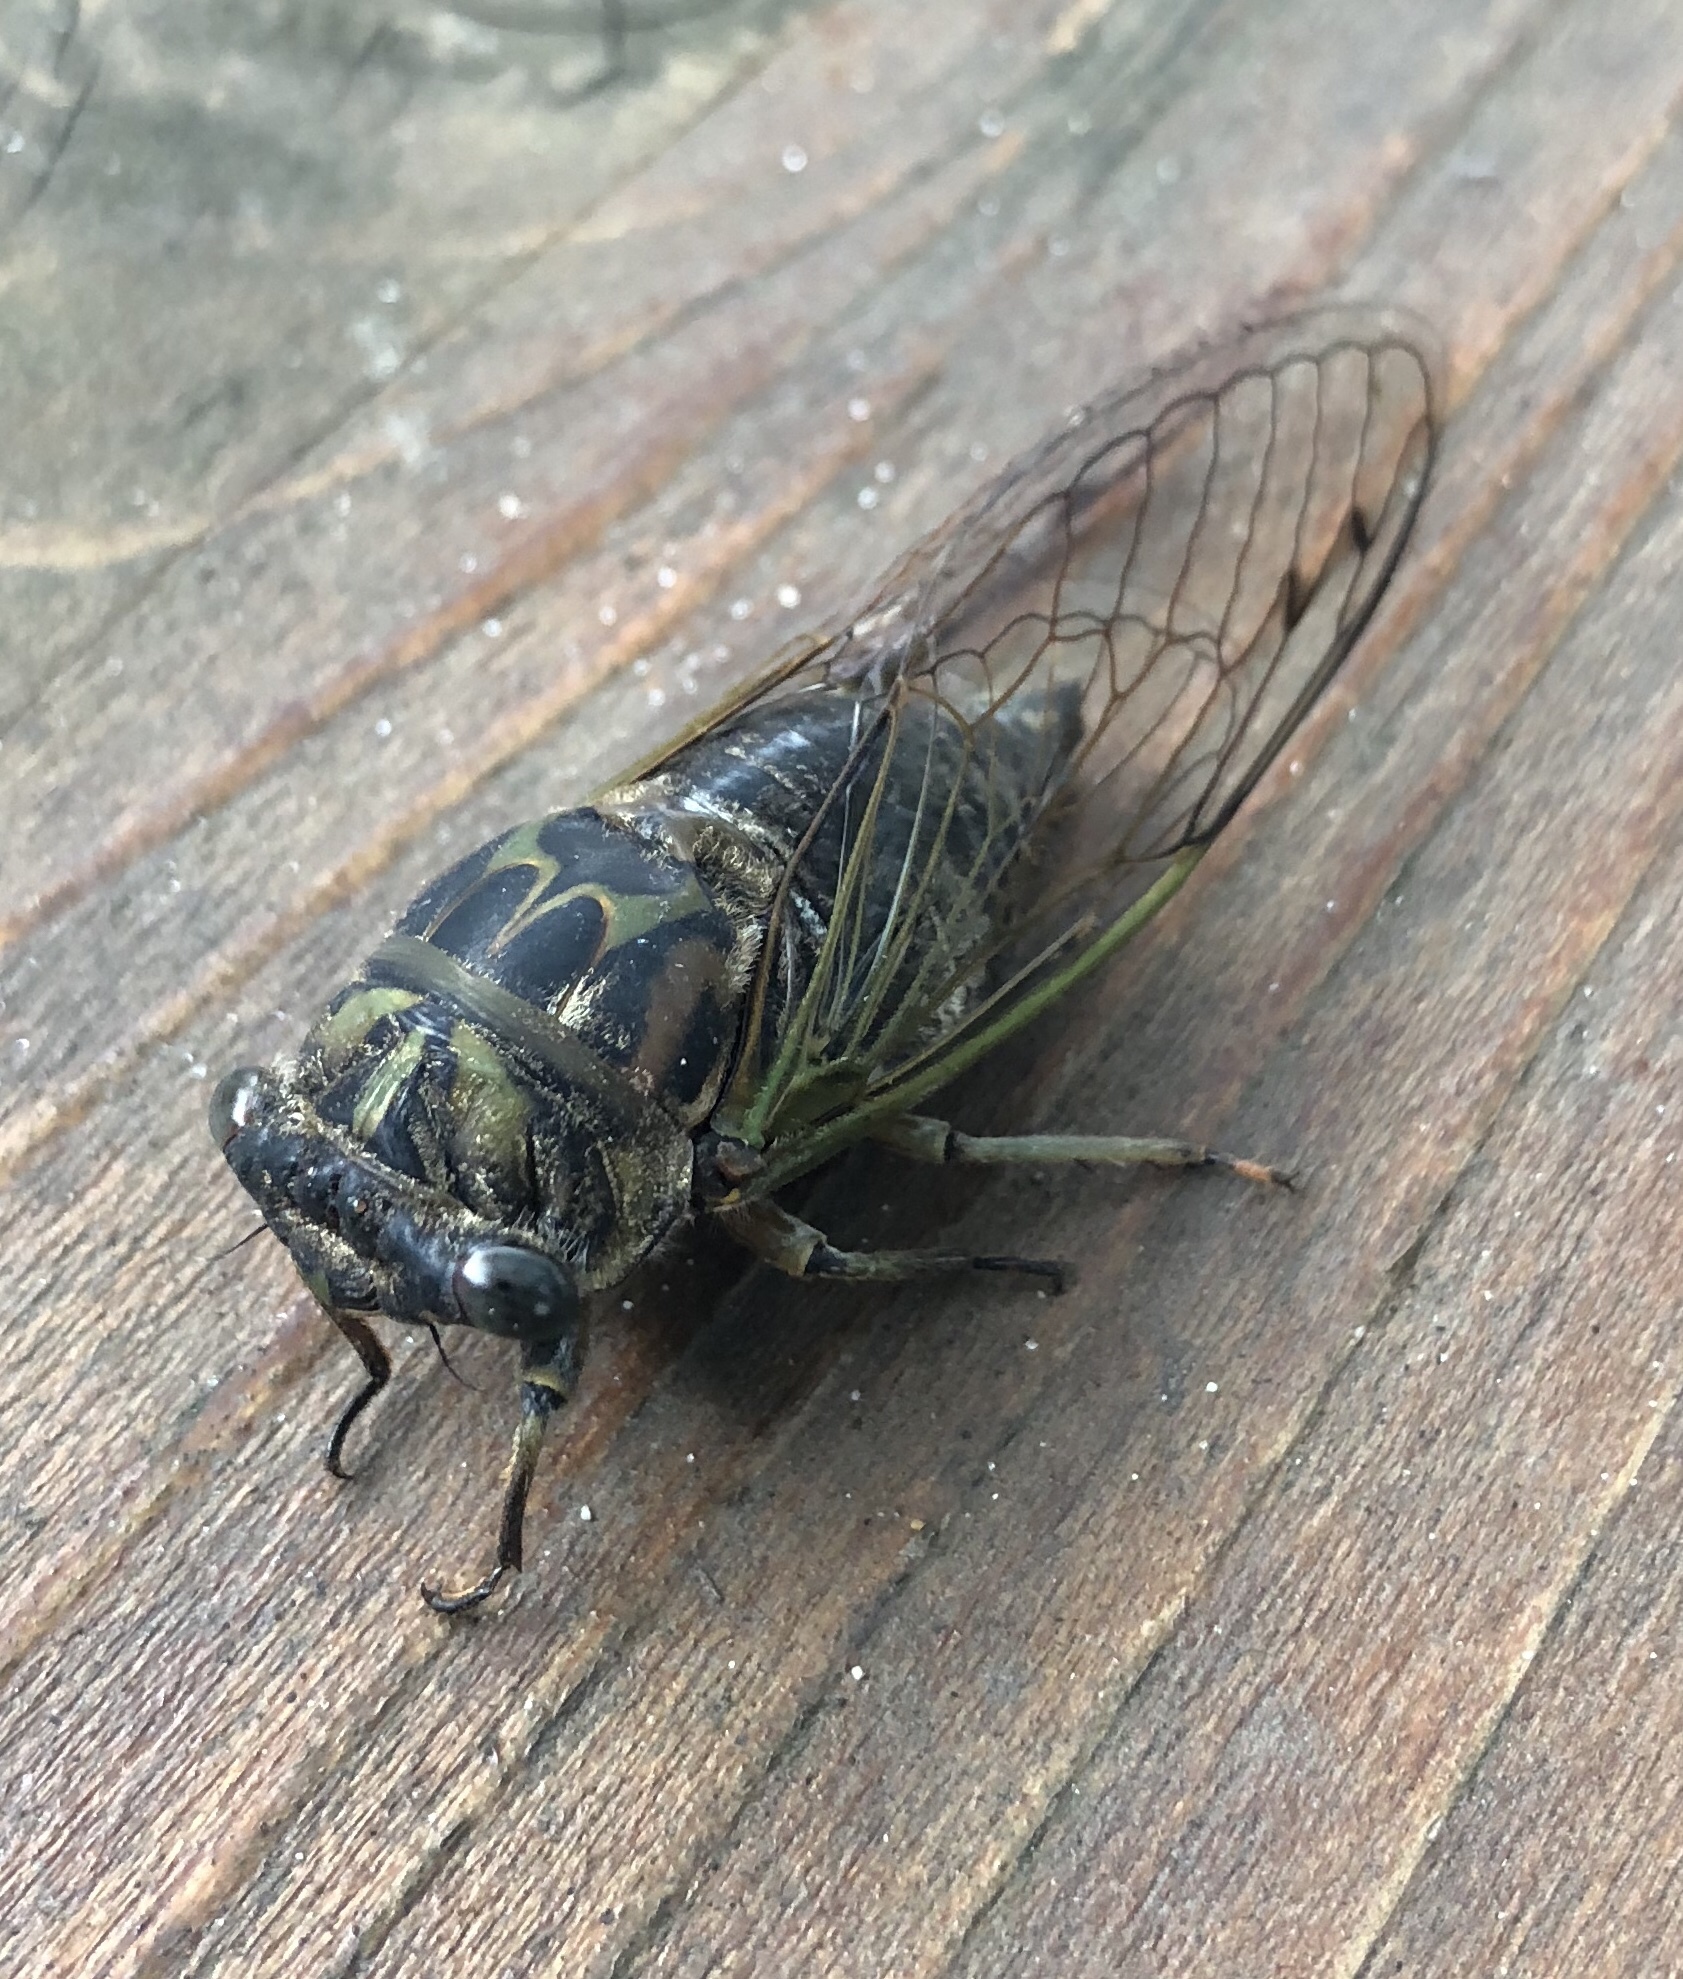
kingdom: Animalia
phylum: Arthropoda
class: Insecta
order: Hemiptera
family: Cicadidae
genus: Neotibicen
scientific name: Neotibicen canicularis
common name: God-day cicada
